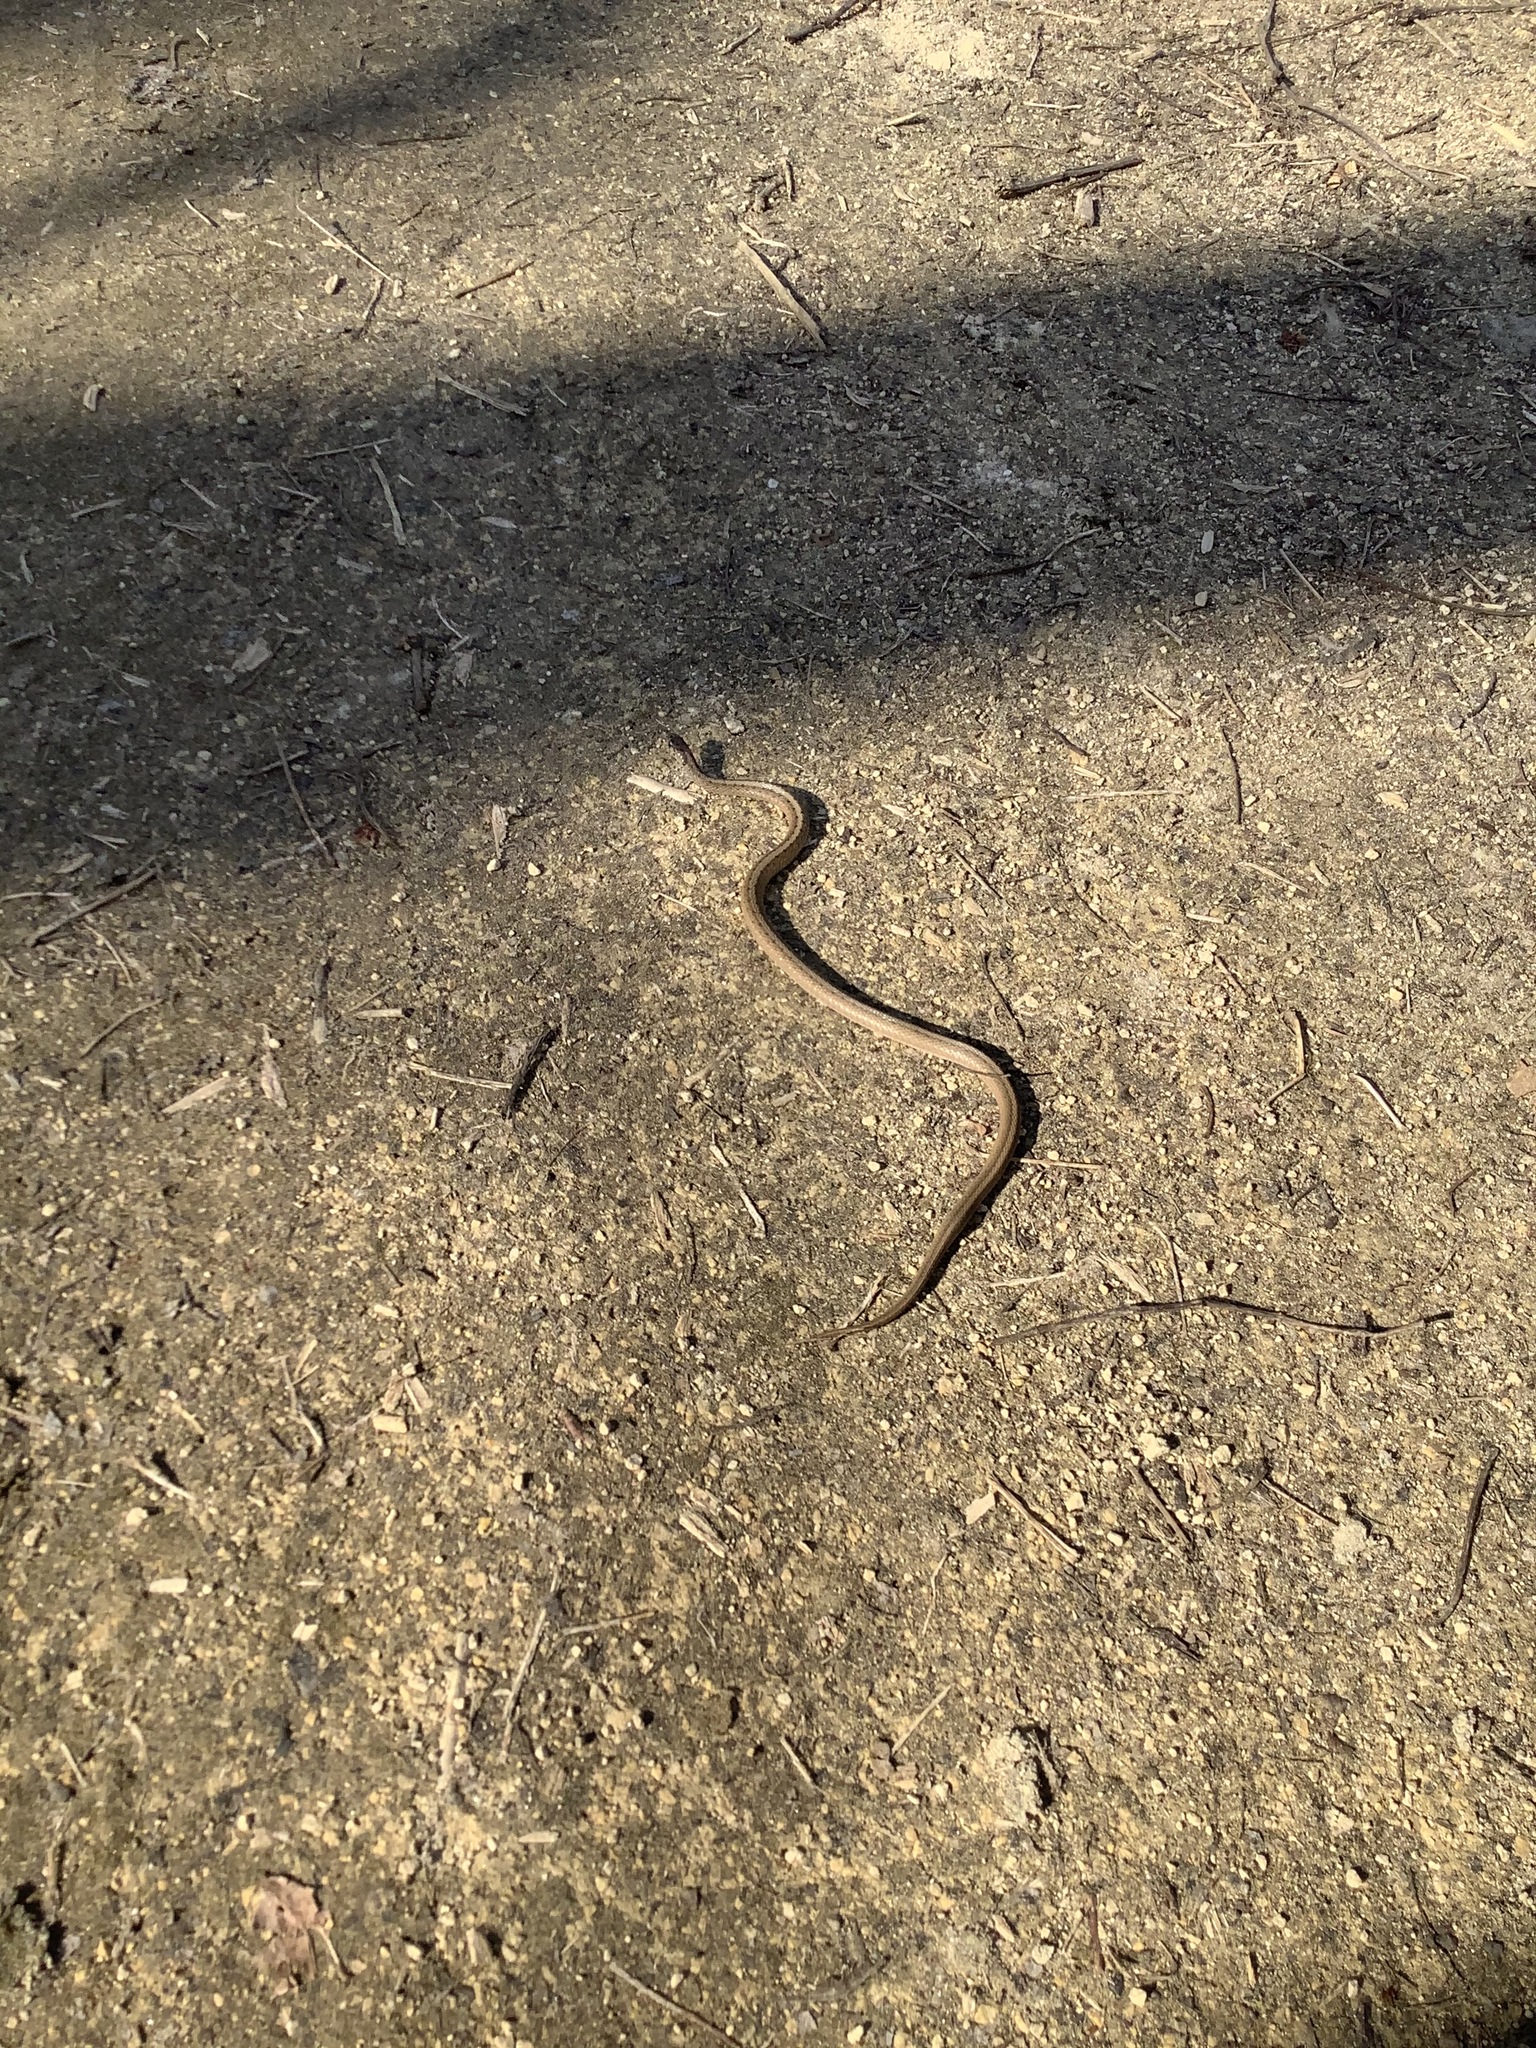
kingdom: Animalia
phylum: Chordata
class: Squamata
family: Colubridae
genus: Storeria
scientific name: Storeria dekayi
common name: (dekay’s) brown snake
